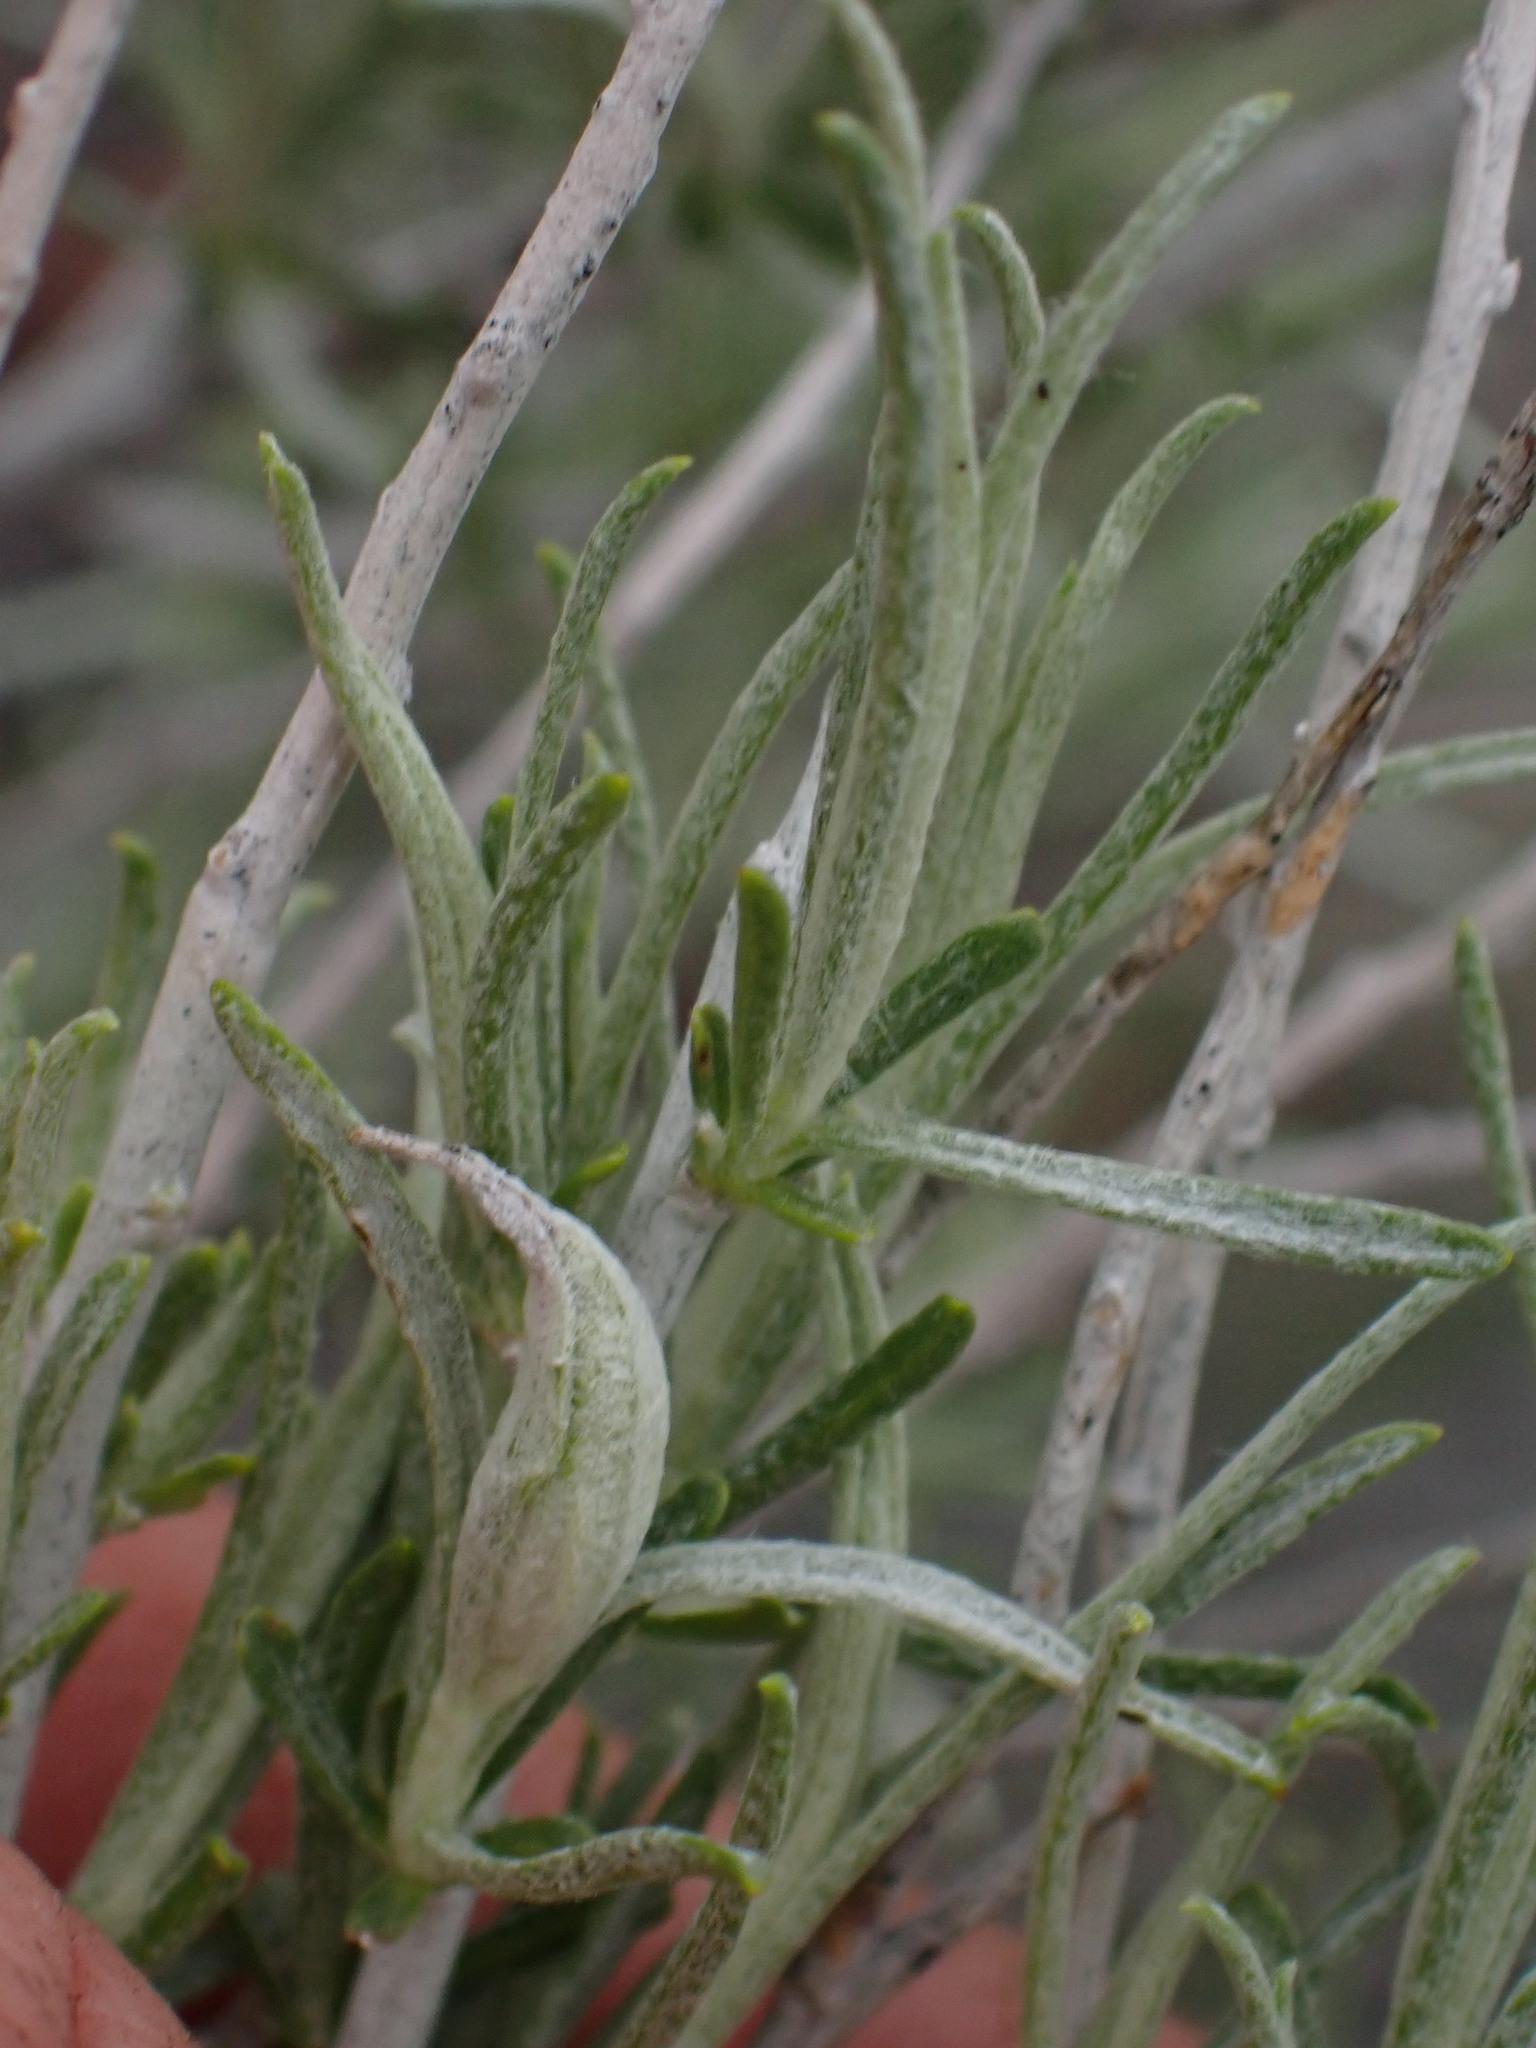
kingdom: Plantae
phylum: Tracheophyta
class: Magnoliopsida
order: Asterales
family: Asteraceae
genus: Ericameria
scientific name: Ericameria nauseosa
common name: Rubber rabbitbrush
